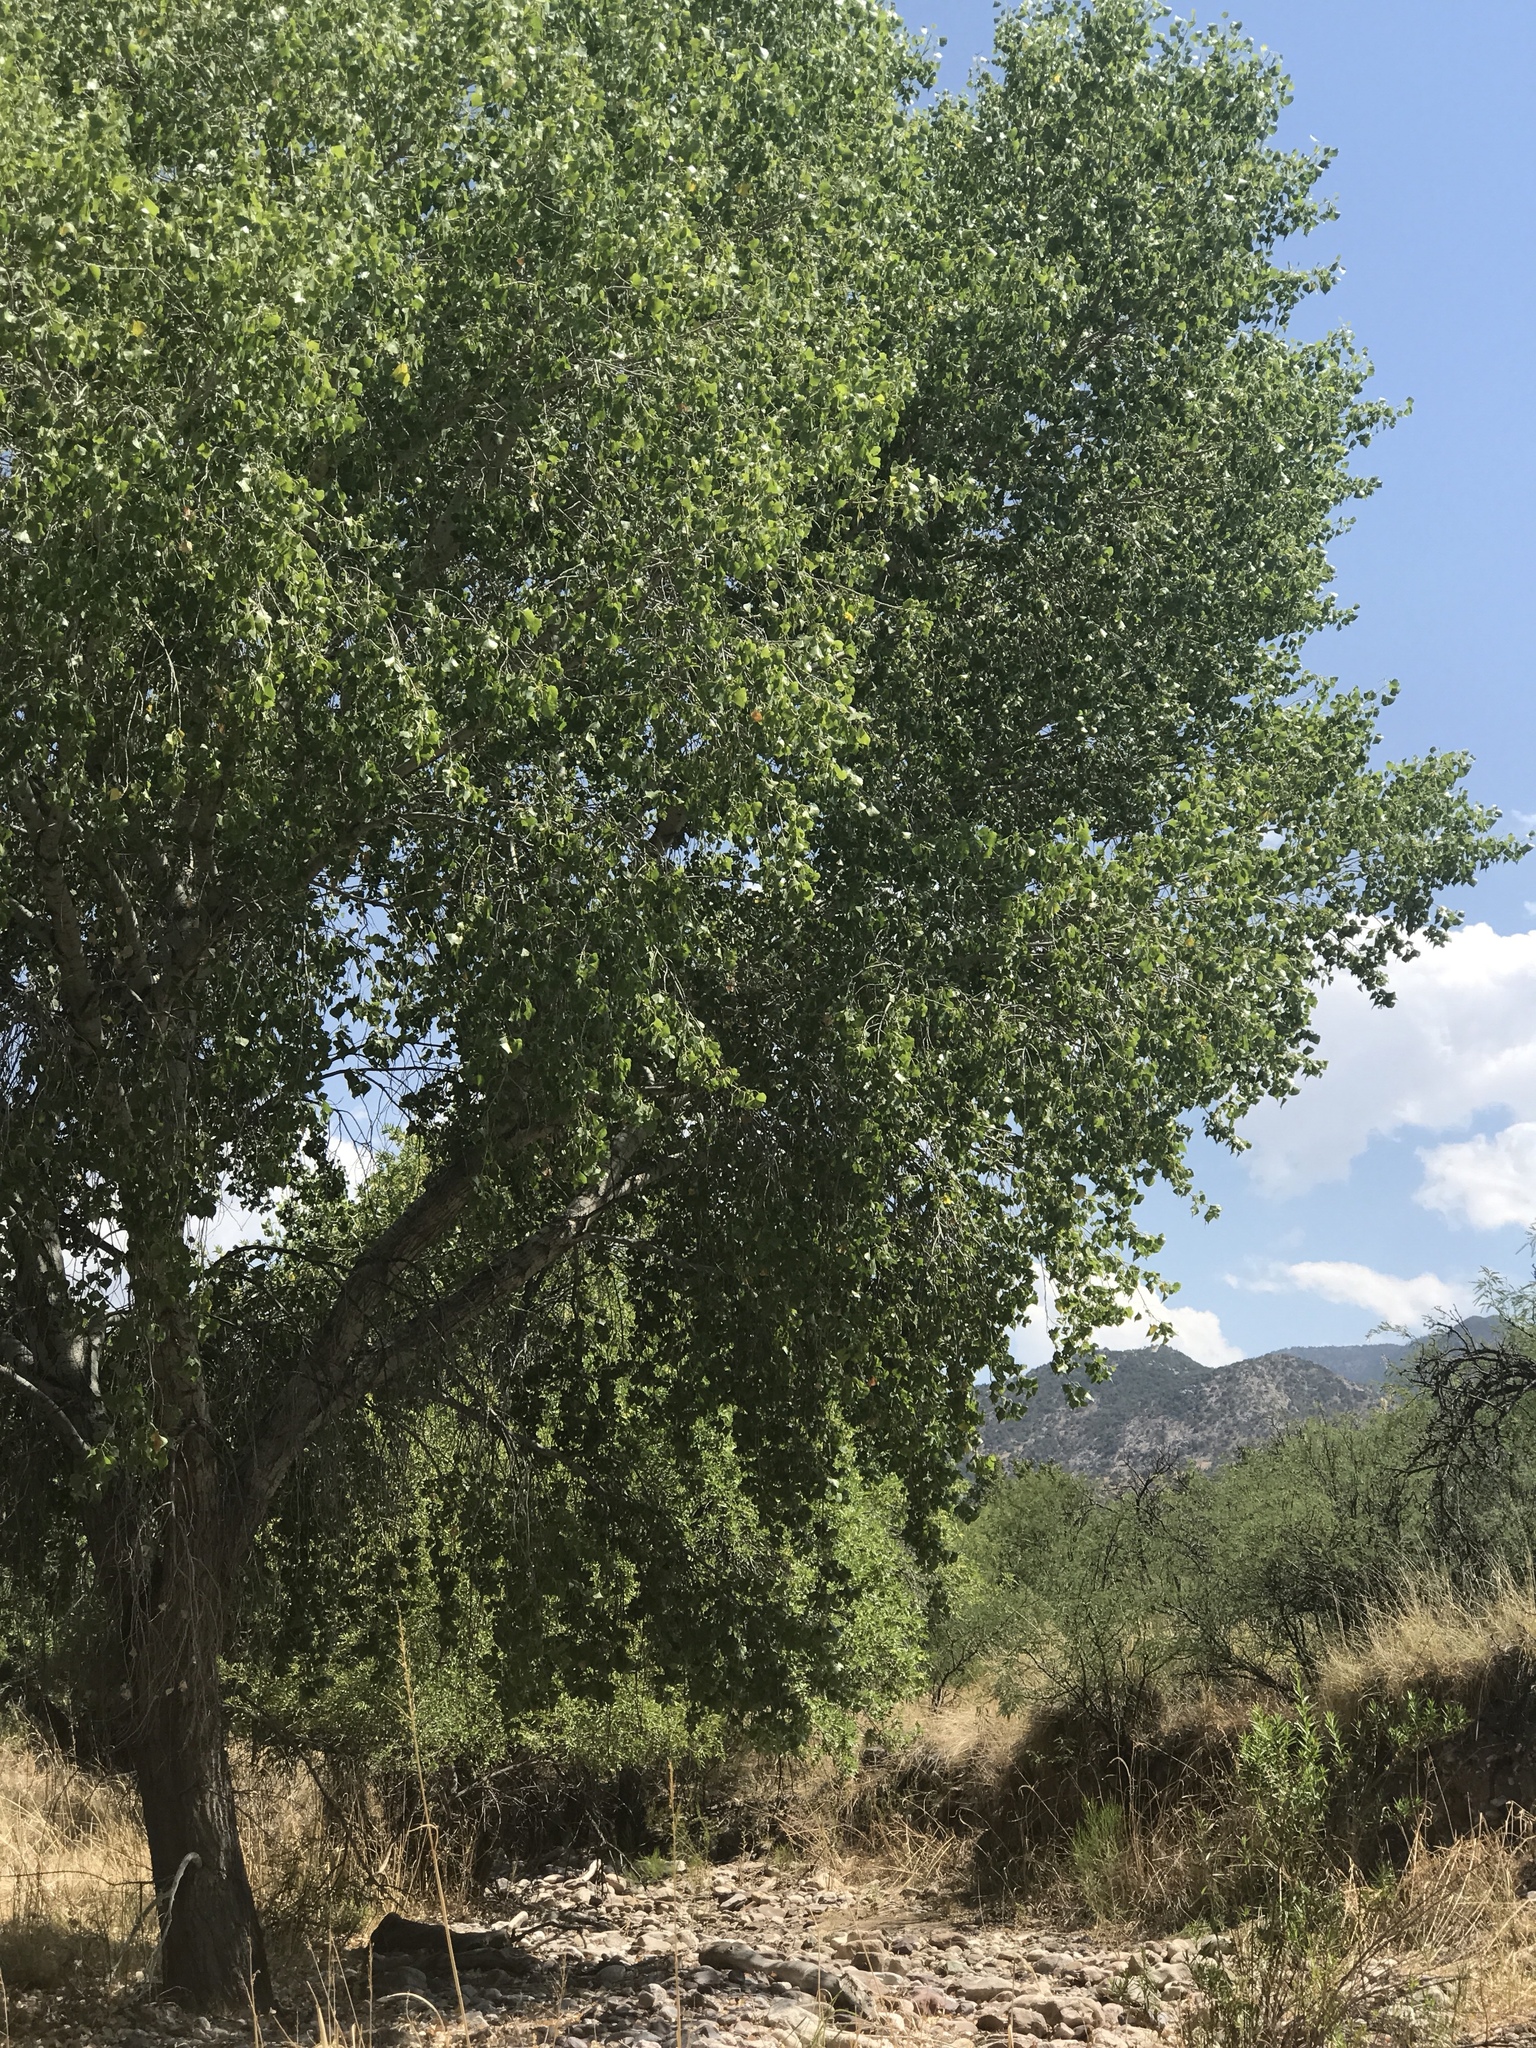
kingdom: Plantae
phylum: Tracheophyta
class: Magnoliopsida
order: Malpighiales
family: Salicaceae
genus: Populus
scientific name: Populus fremontii
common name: Fremont's cottonwood
